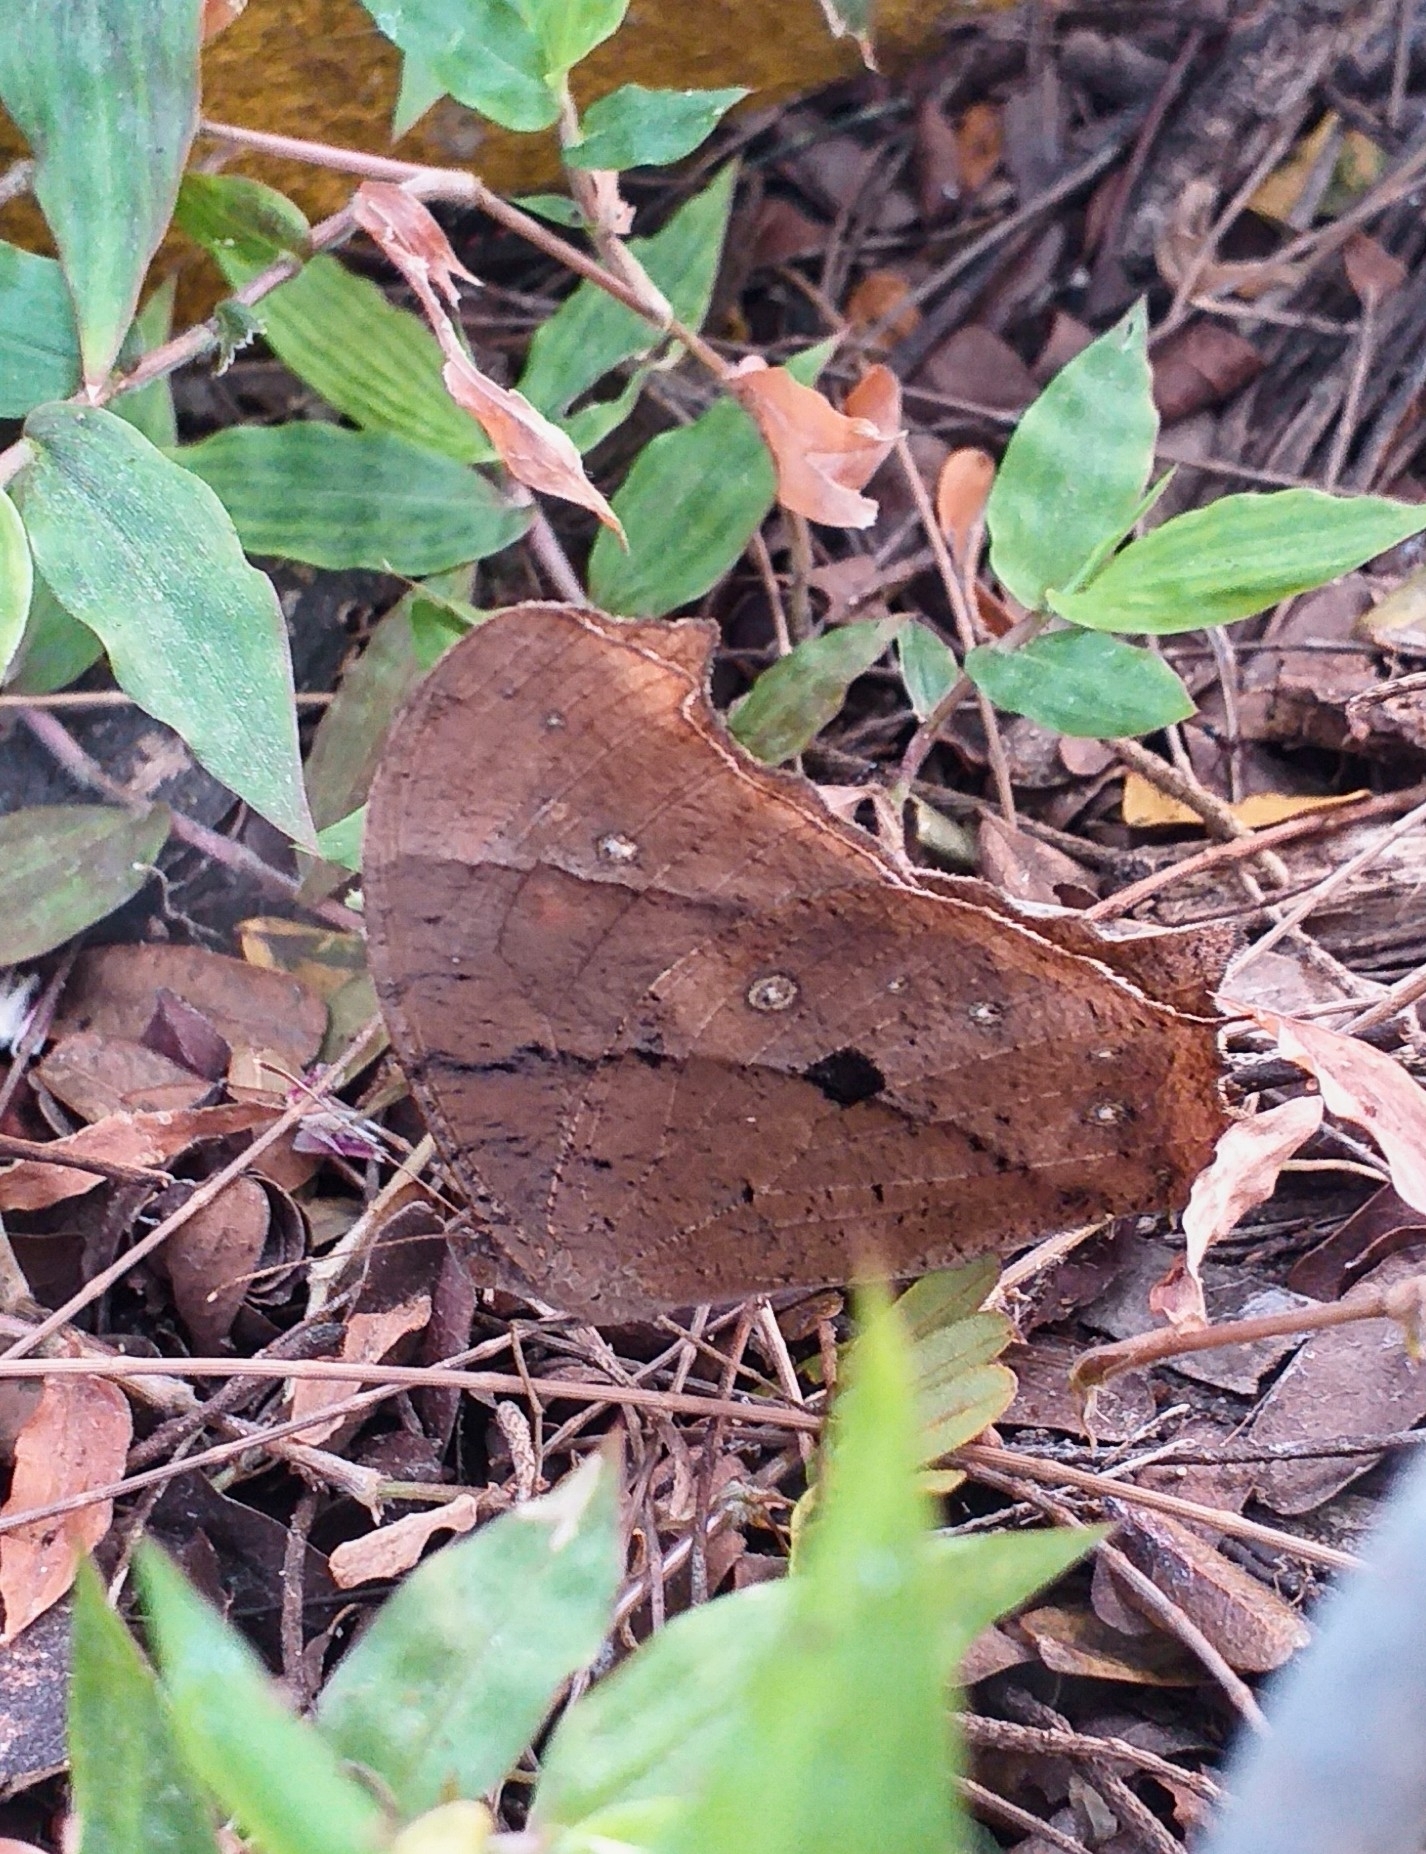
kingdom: Animalia
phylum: Arthropoda
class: Insecta
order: Lepidoptera
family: Nymphalidae
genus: Melanitis
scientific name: Melanitis leda
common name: Twilight brown
